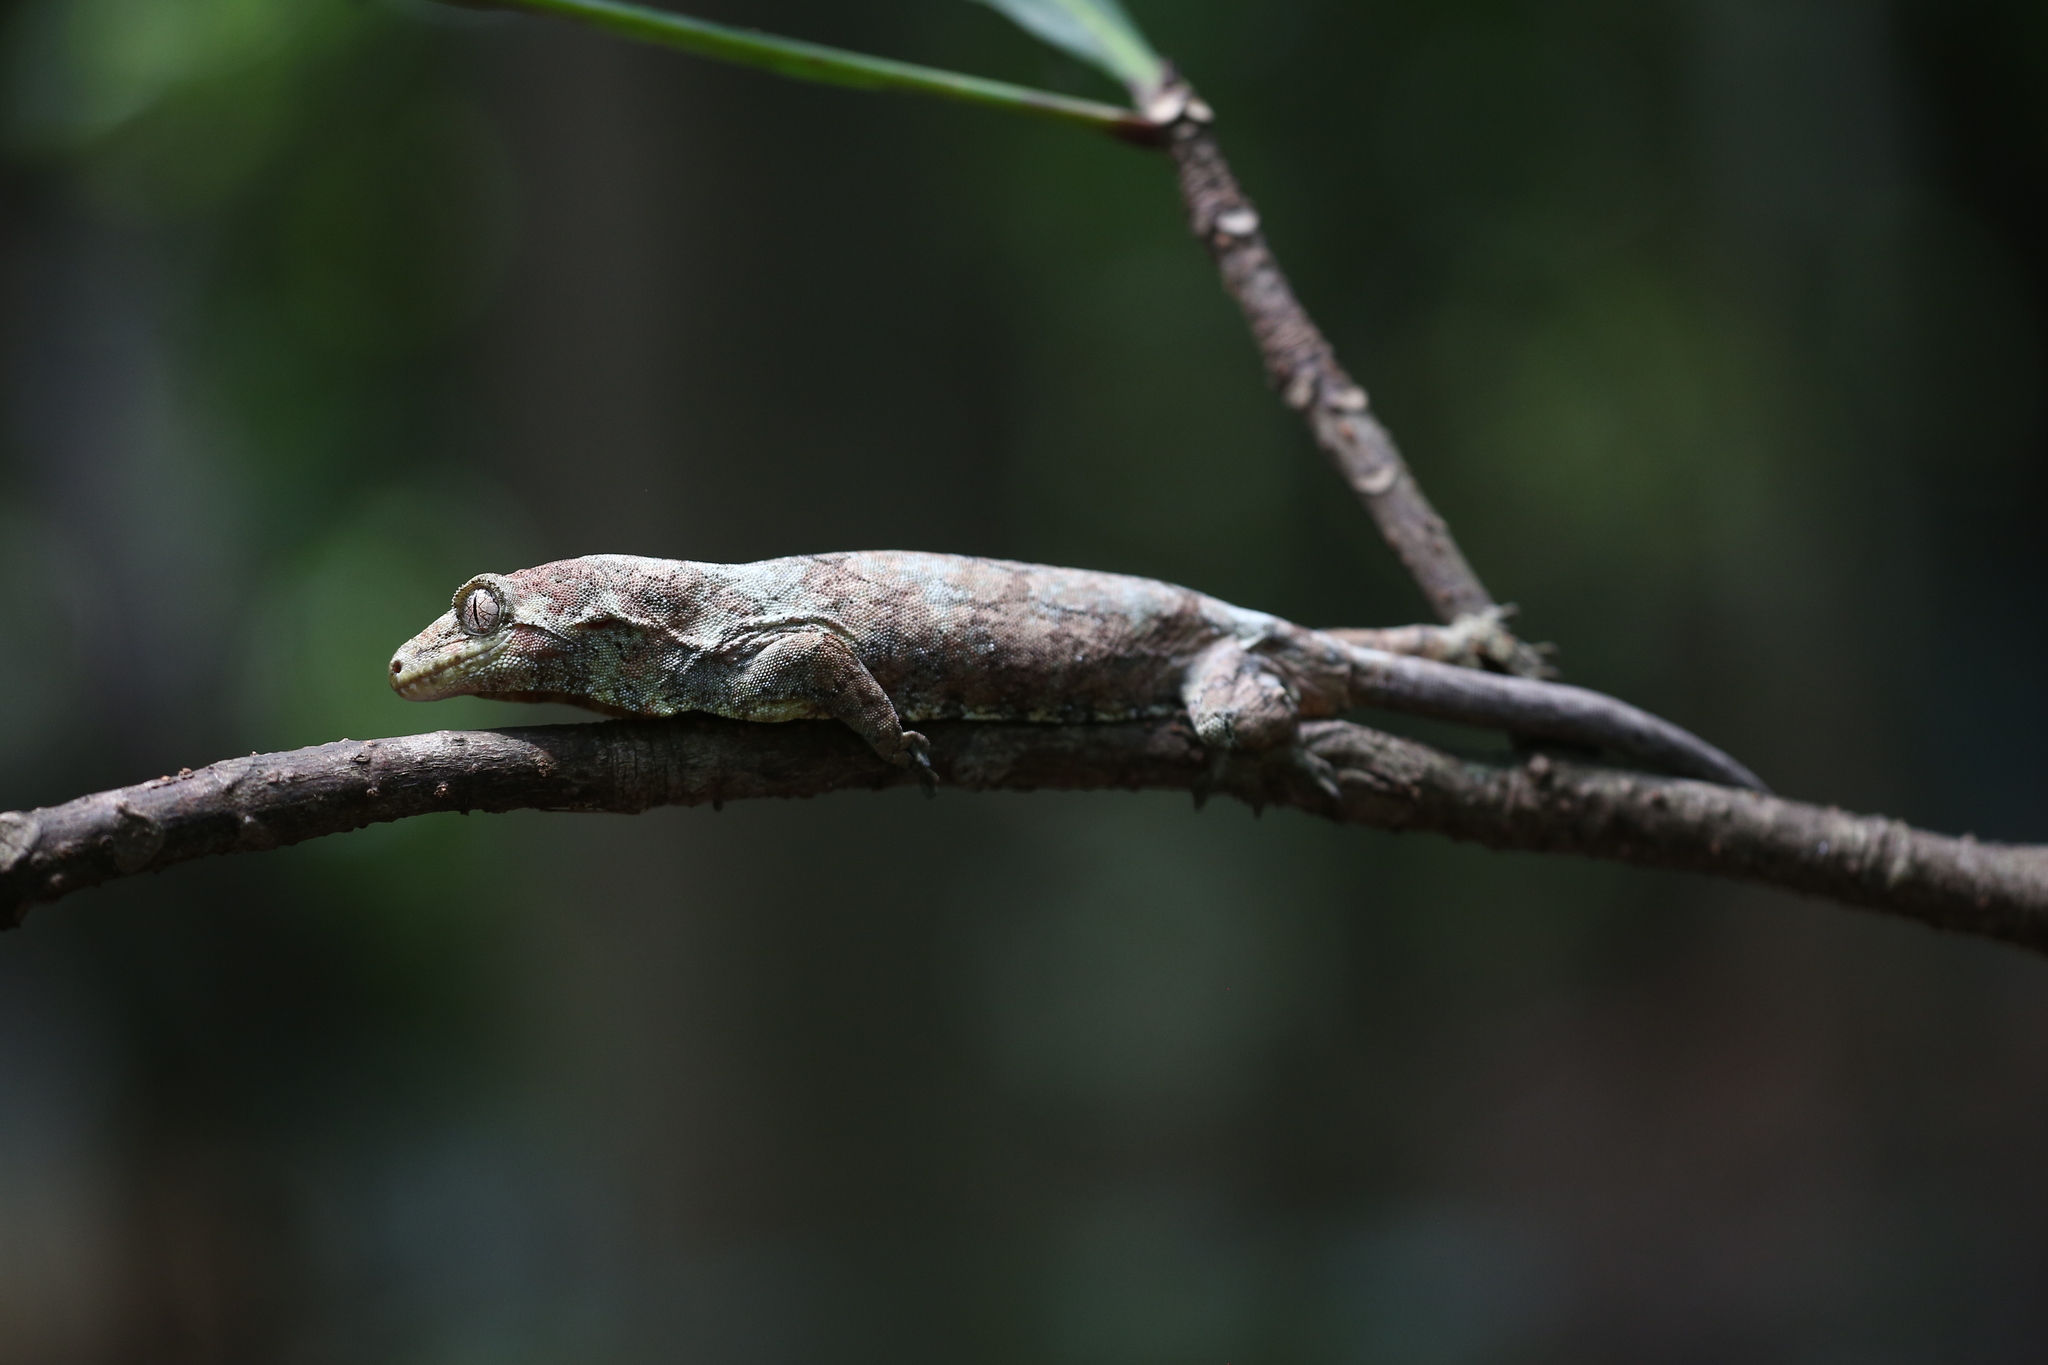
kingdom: Animalia
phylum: Chordata
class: Squamata
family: Diplodactylidae
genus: Mniarogekko
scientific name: Mniarogekko jalu
